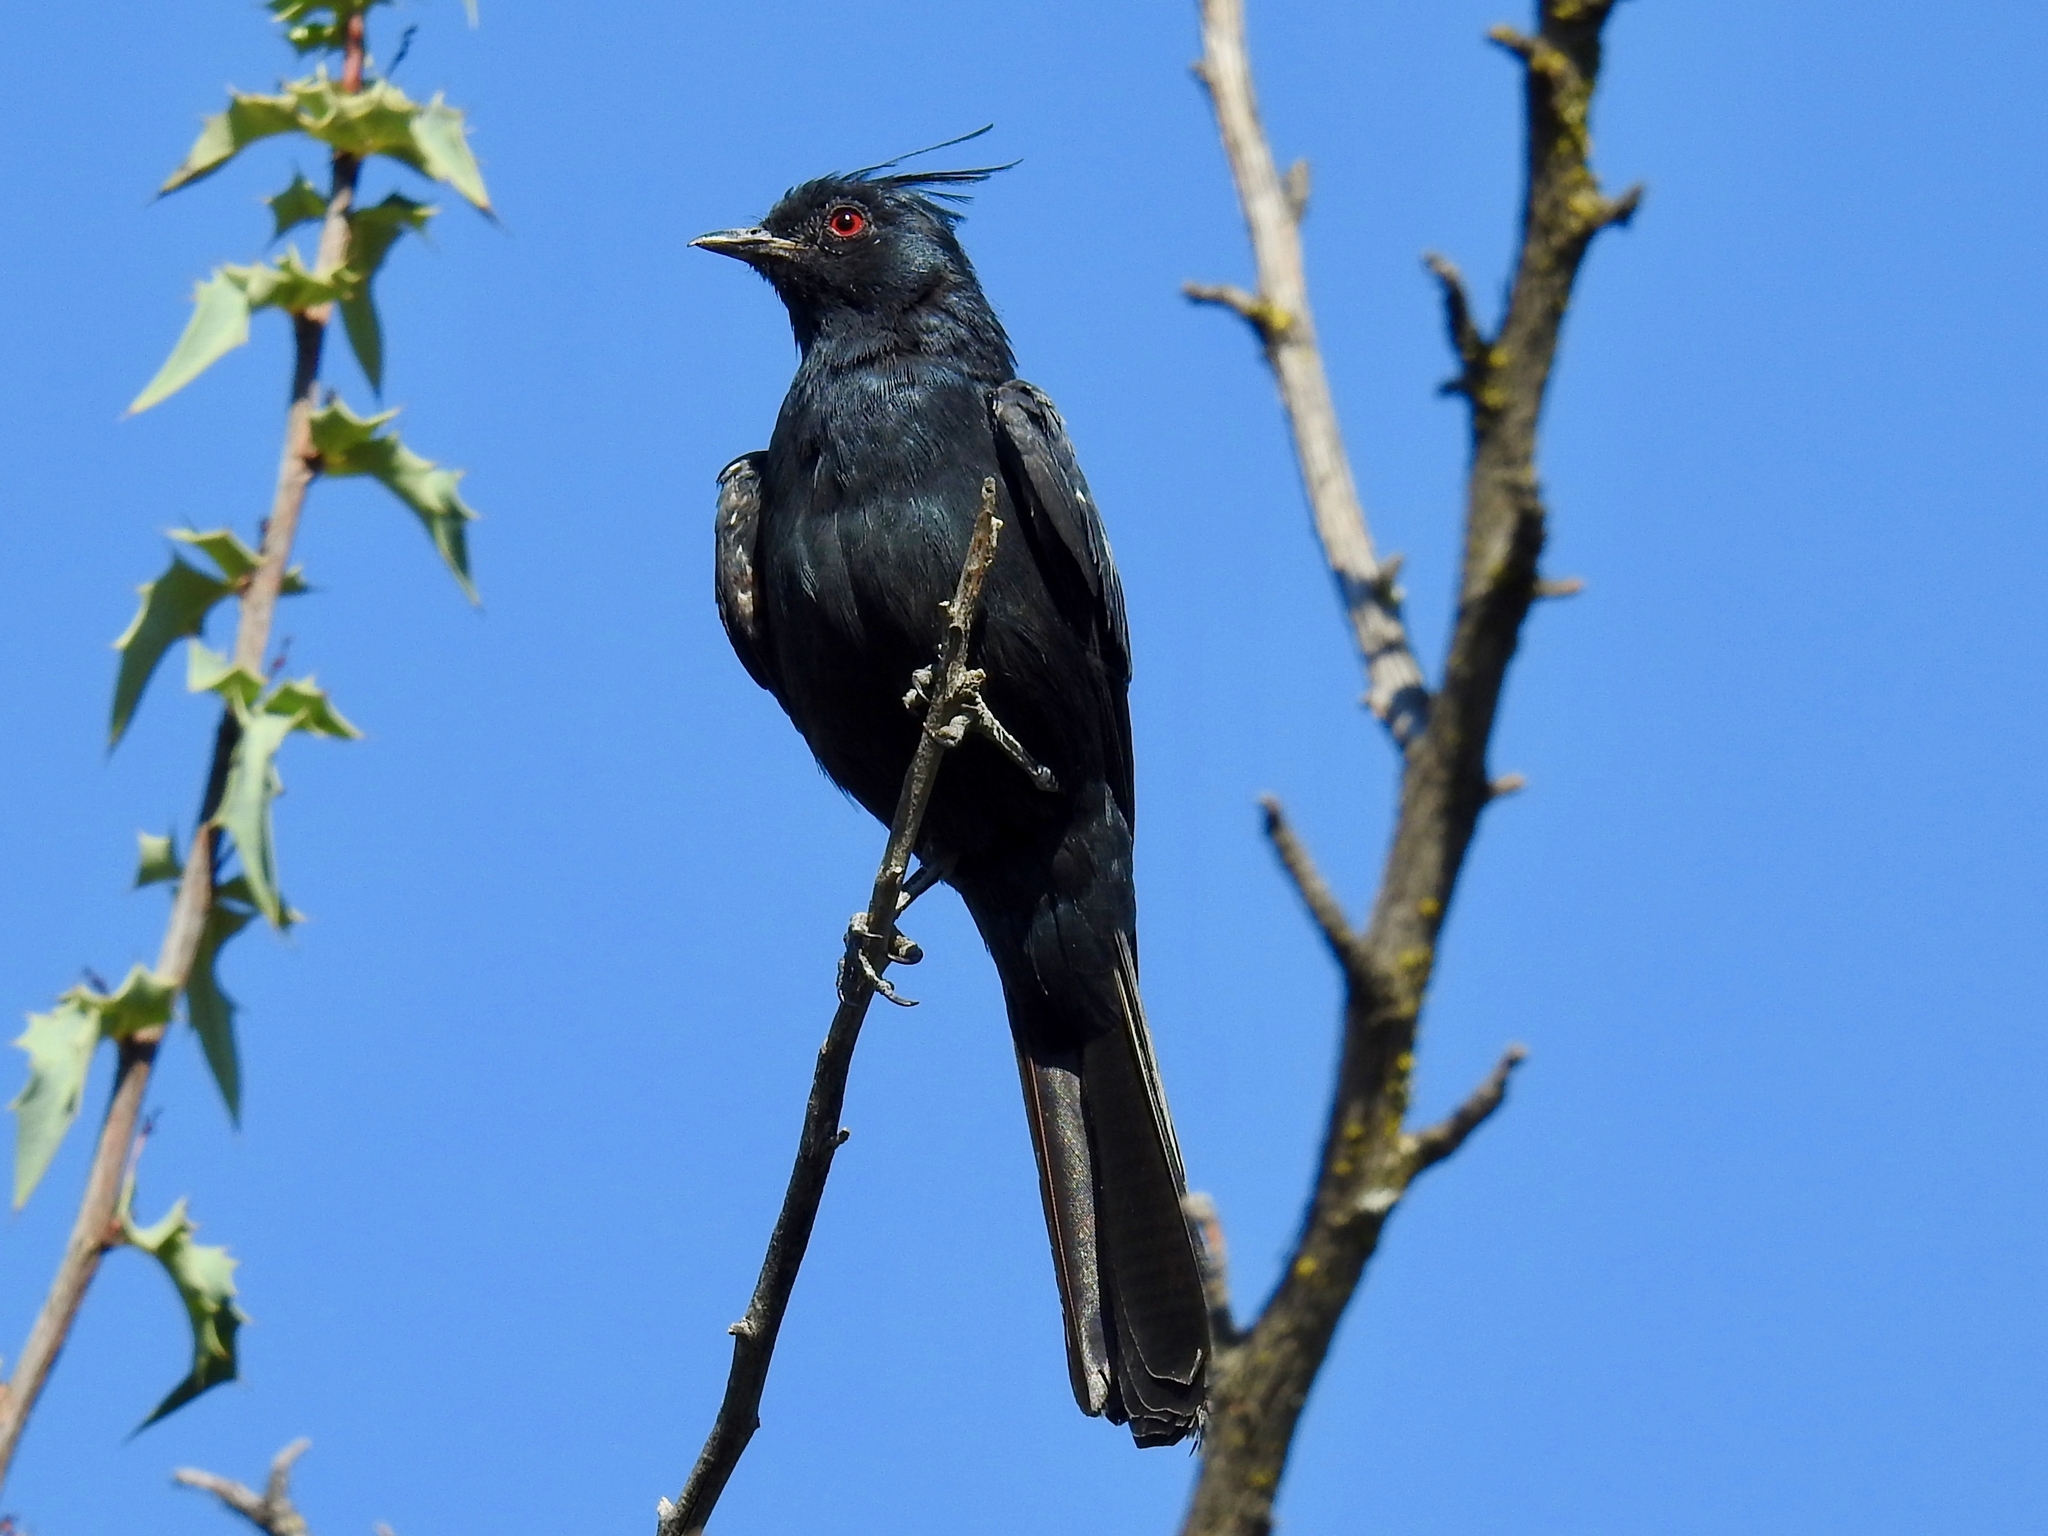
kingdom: Animalia
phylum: Chordata
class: Aves
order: Passeriformes
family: Ptilogonatidae
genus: Phainopepla
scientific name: Phainopepla nitens
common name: Phainopepla
